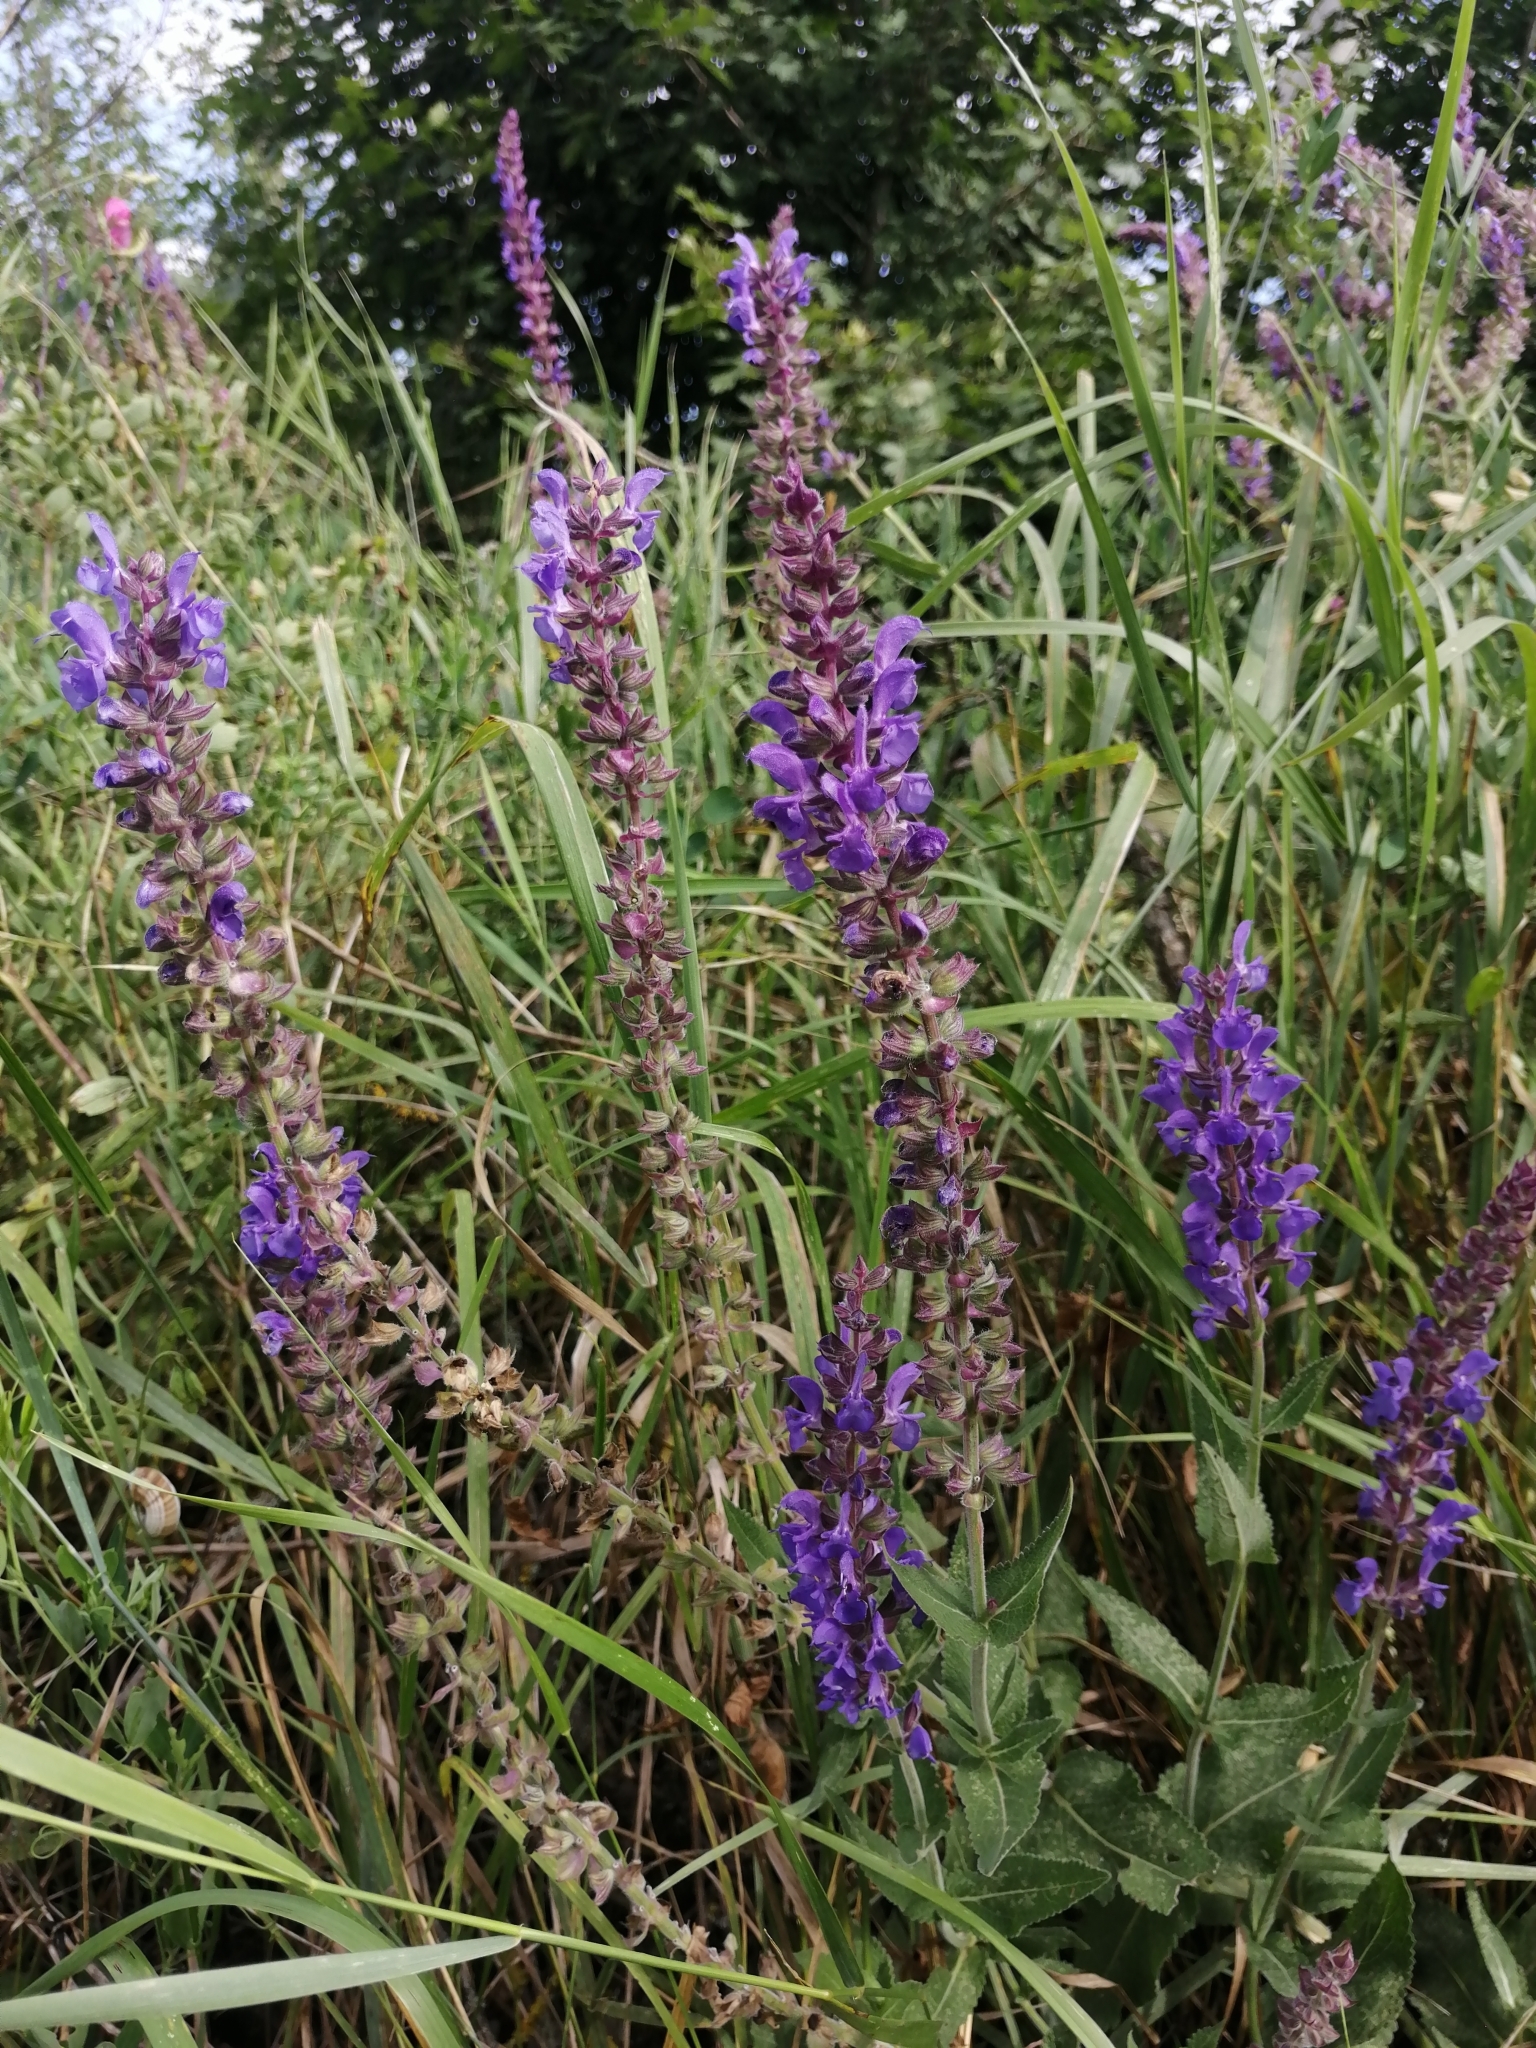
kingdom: Plantae
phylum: Tracheophyta
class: Magnoliopsida
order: Lamiales
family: Lamiaceae
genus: Salvia
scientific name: Salvia nemorosa
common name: Balkan clary
